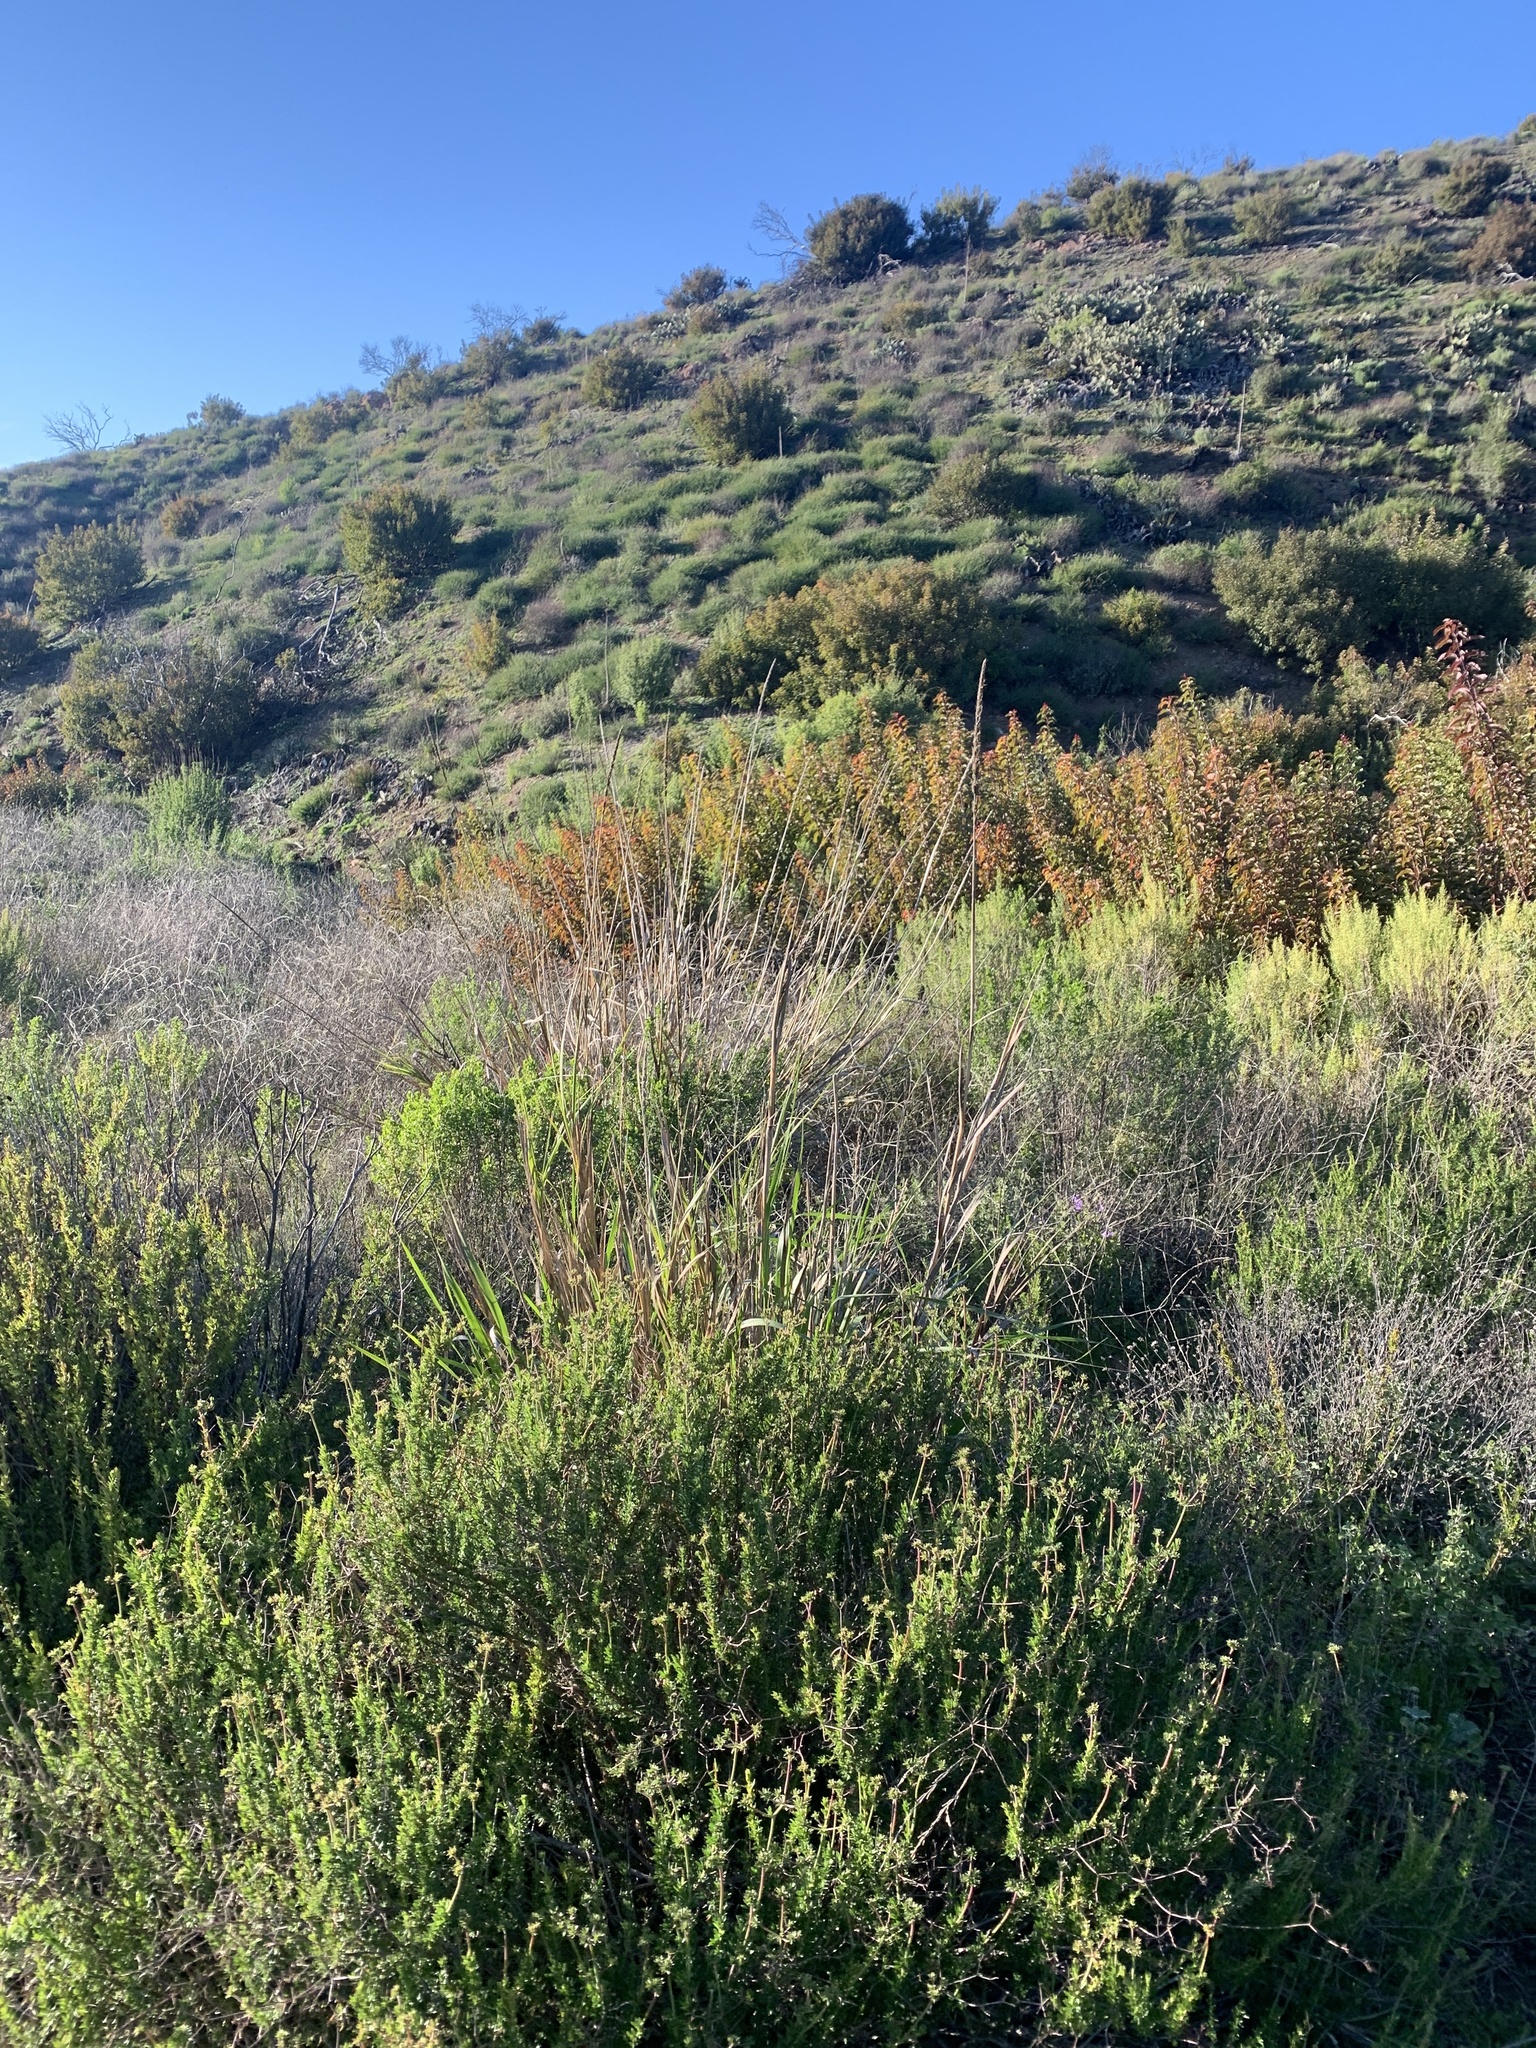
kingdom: Plantae
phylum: Tracheophyta
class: Liliopsida
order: Poales
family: Poaceae
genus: Leymus
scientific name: Leymus condensatus
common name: Giant wild rye
